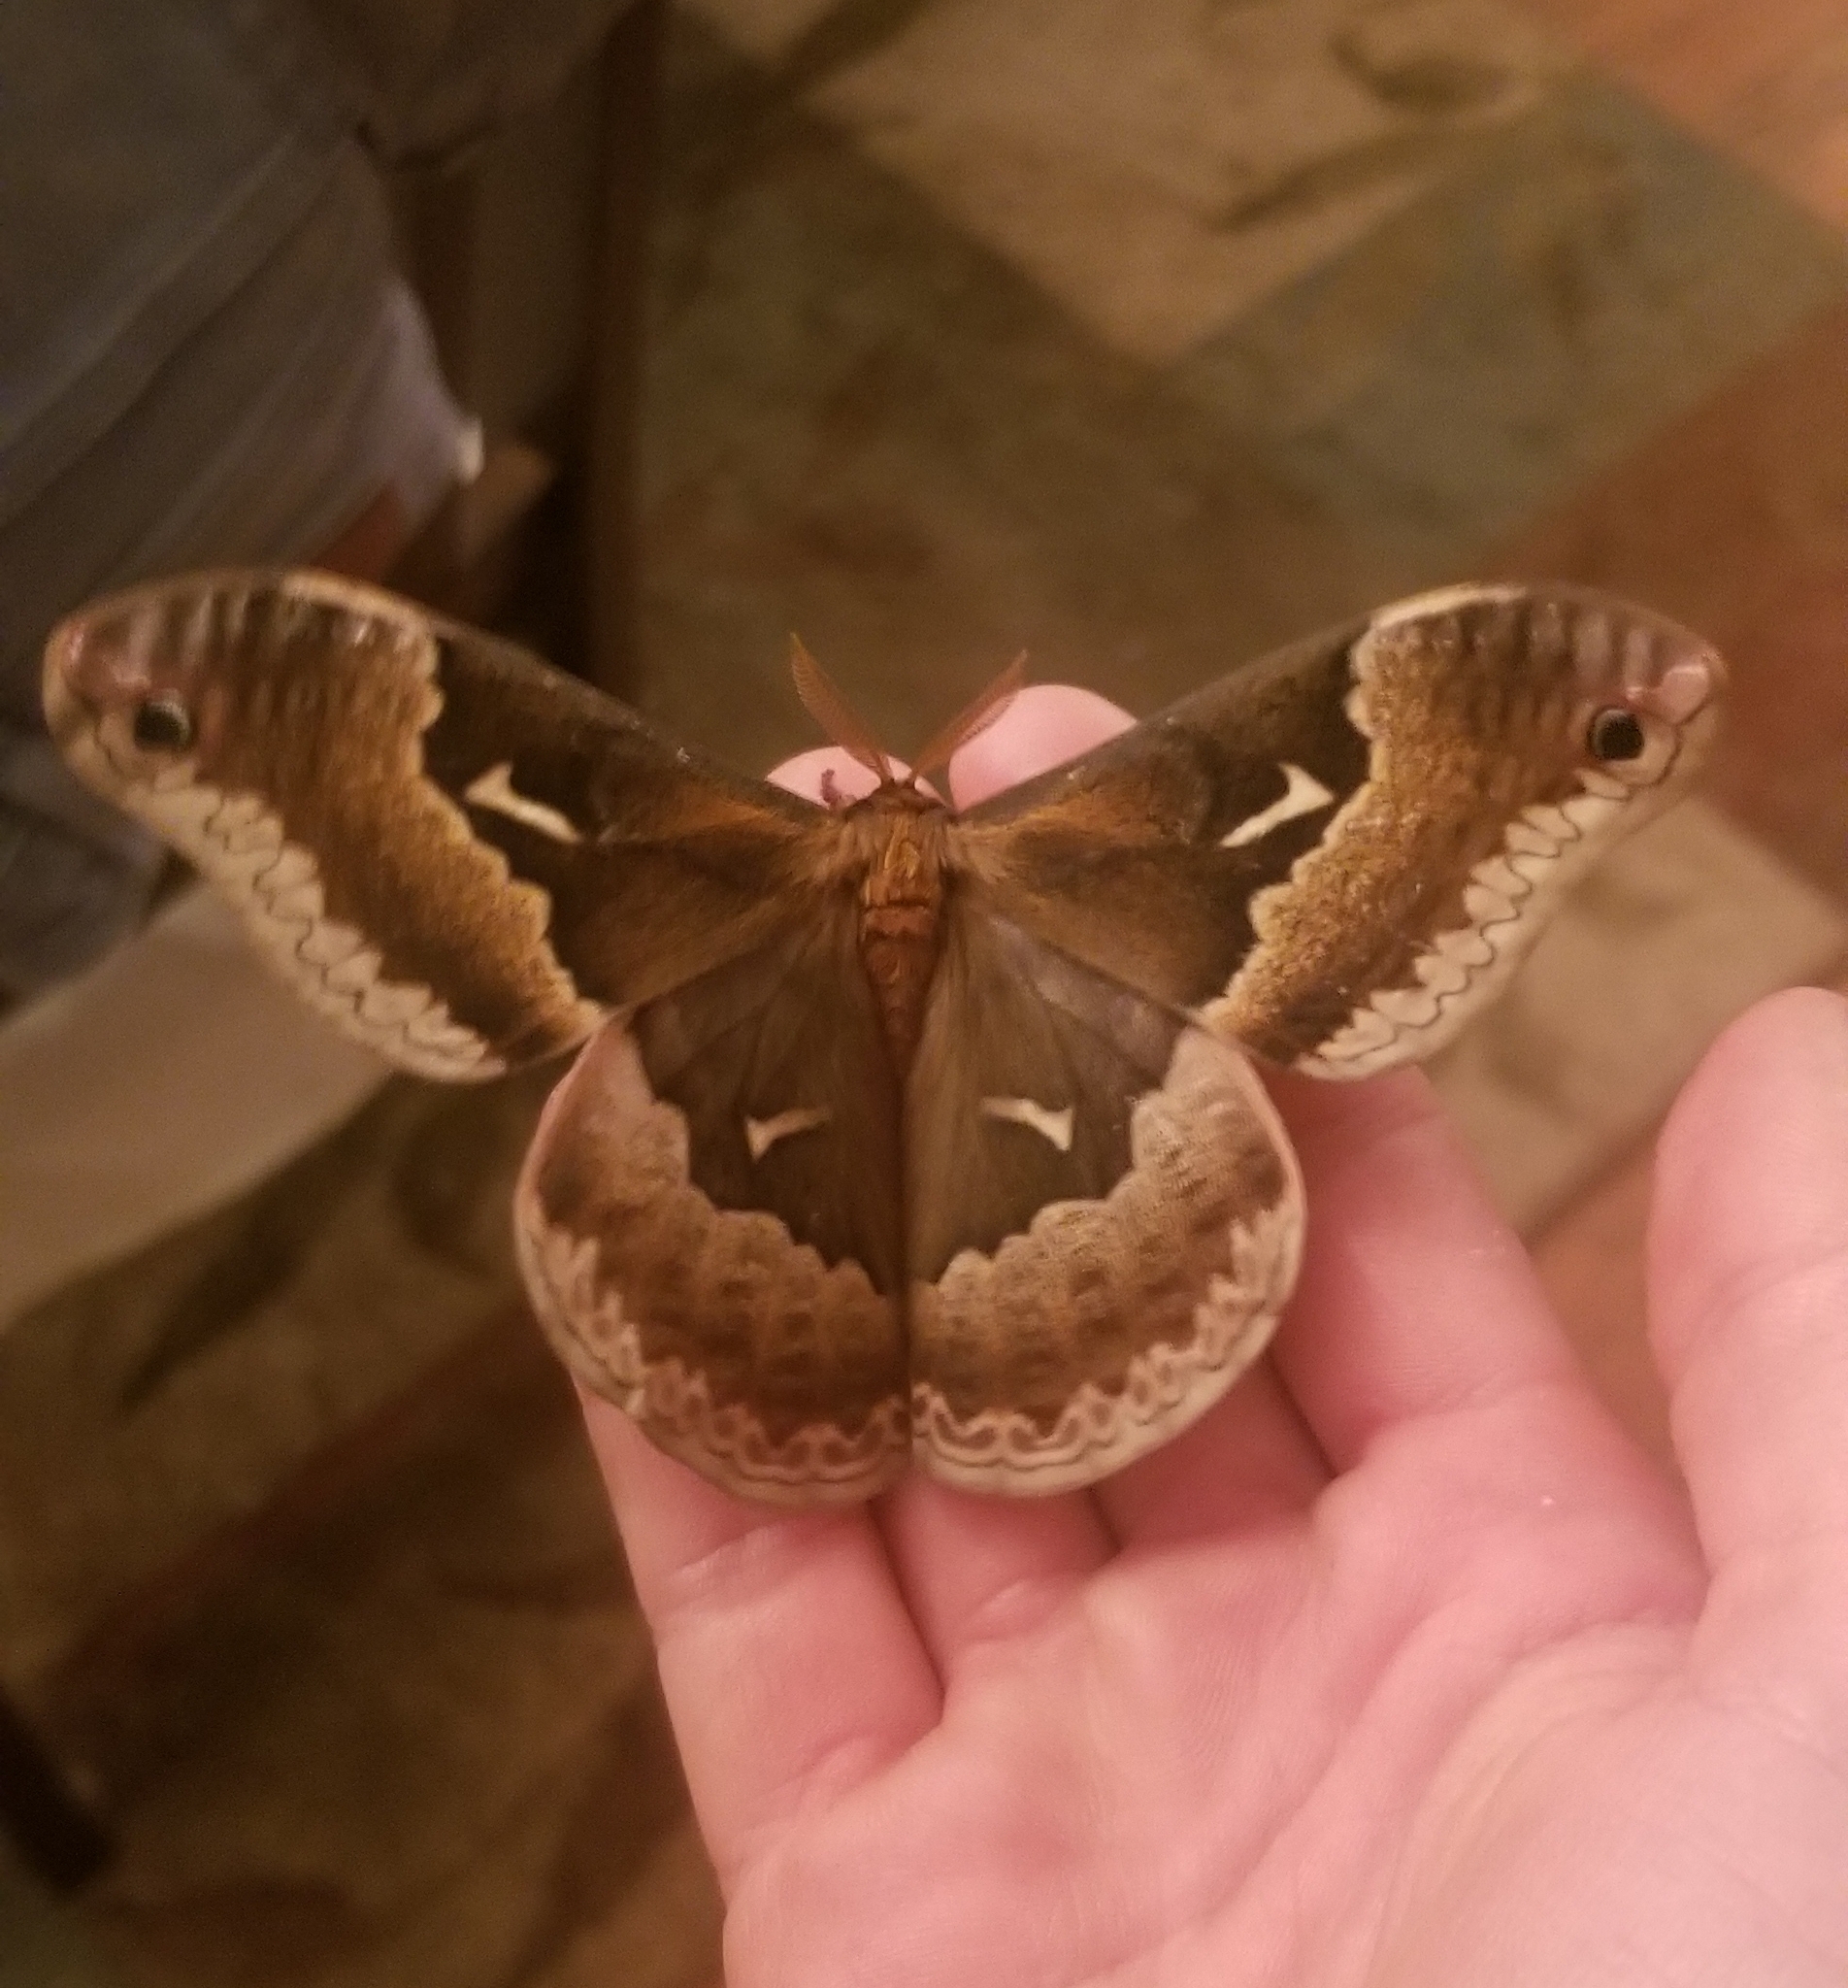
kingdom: Animalia
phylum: Arthropoda
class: Insecta
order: Lepidoptera
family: Saturniidae
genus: Callosamia
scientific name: Callosamia angulifera
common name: Tulip tree silkmoth
